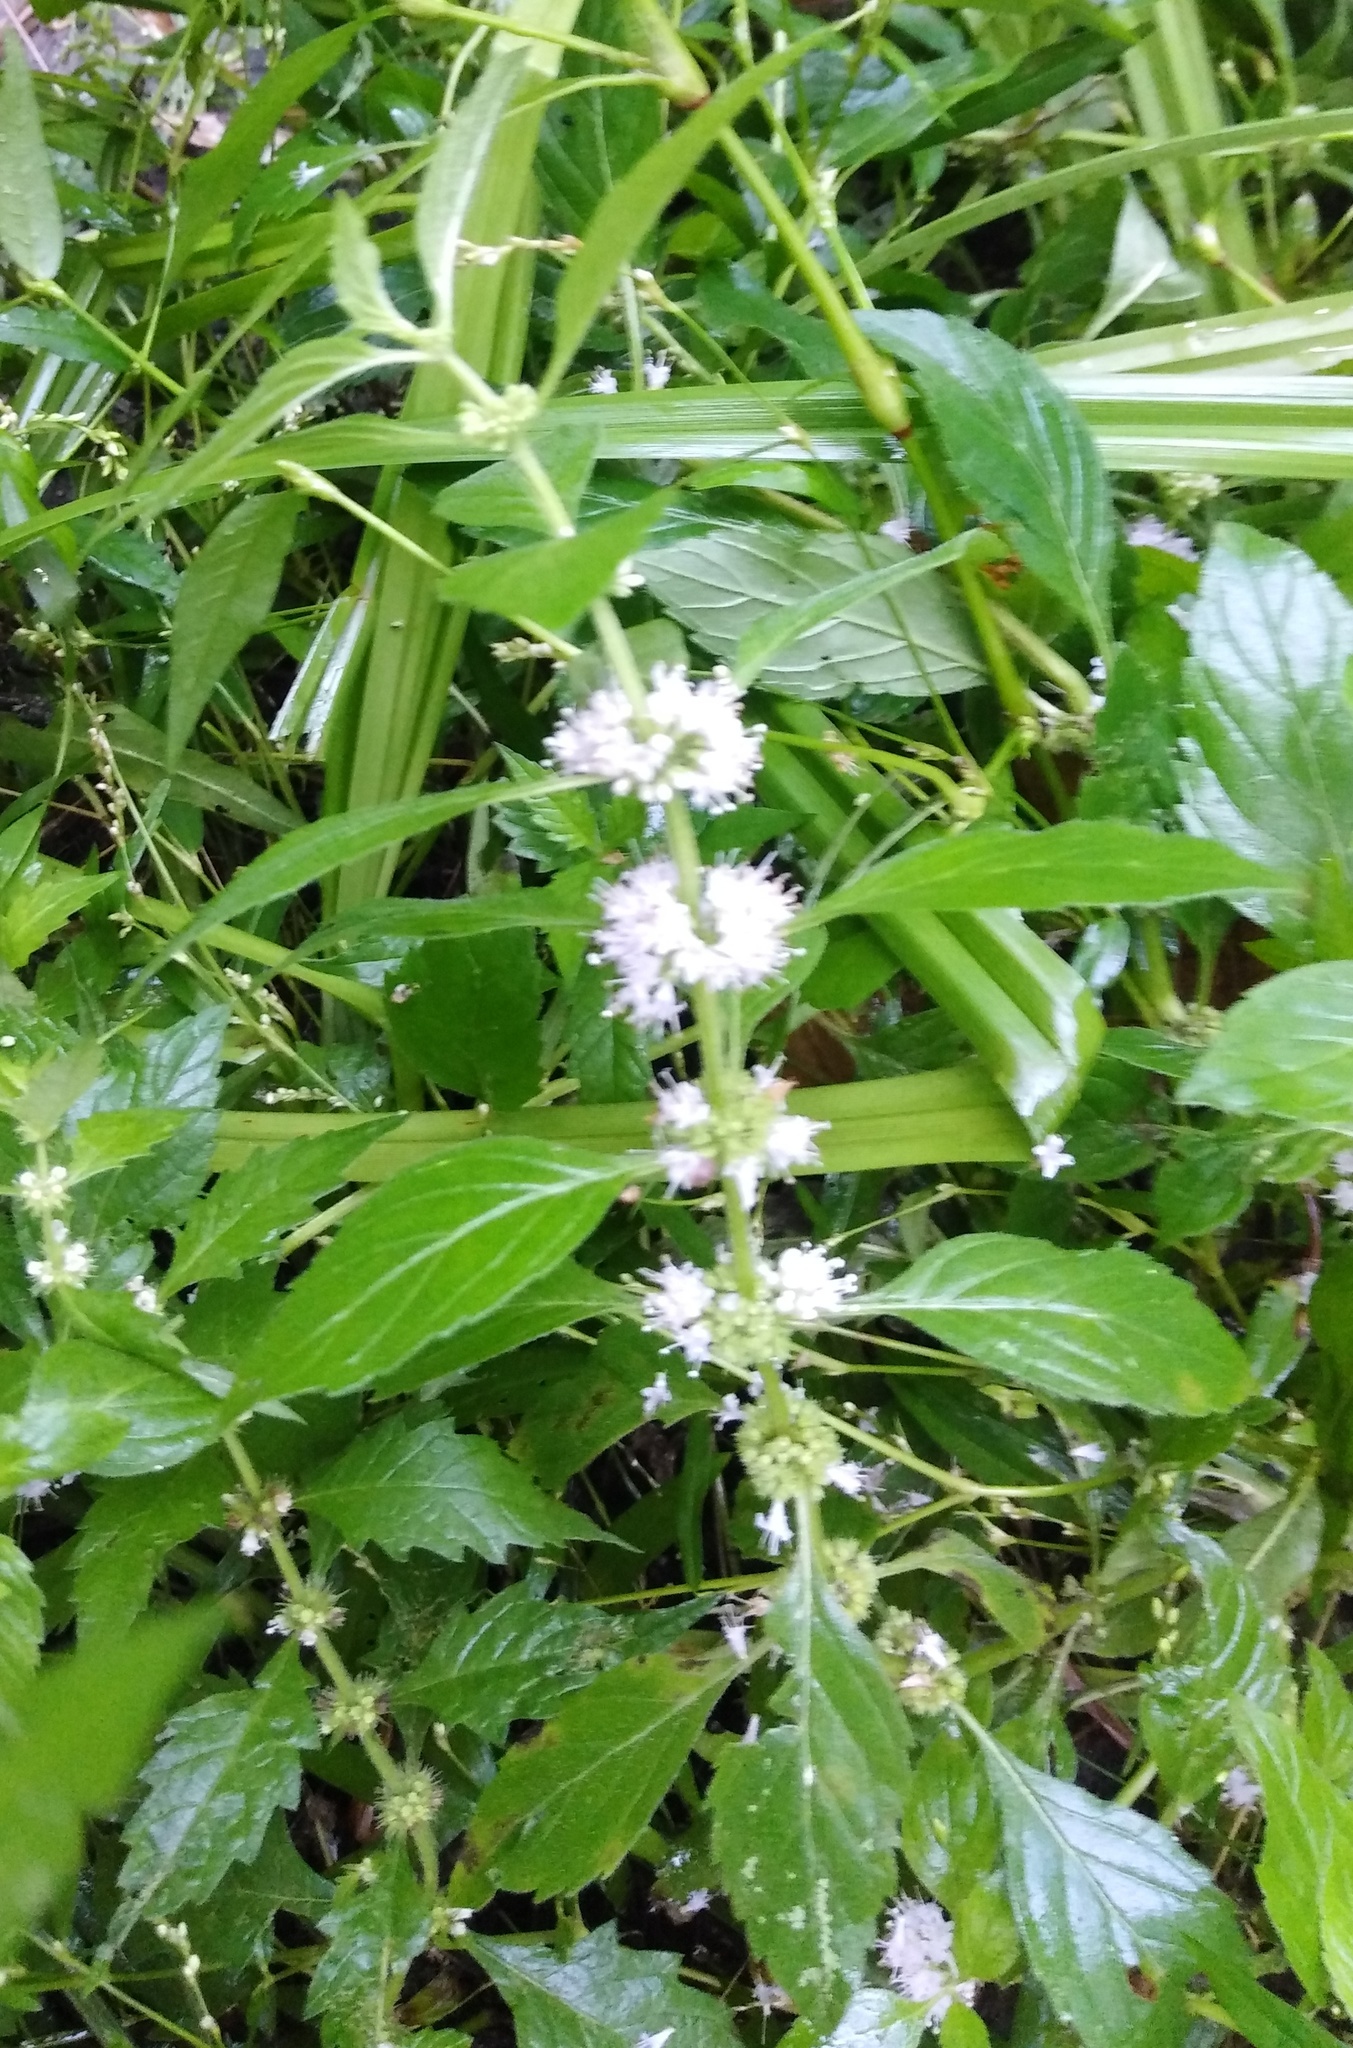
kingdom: Plantae
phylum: Tracheophyta
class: Magnoliopsida
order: Lamiales
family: Lamiaceae
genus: Mentha
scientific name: Mentha arvensis
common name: Corn mint
